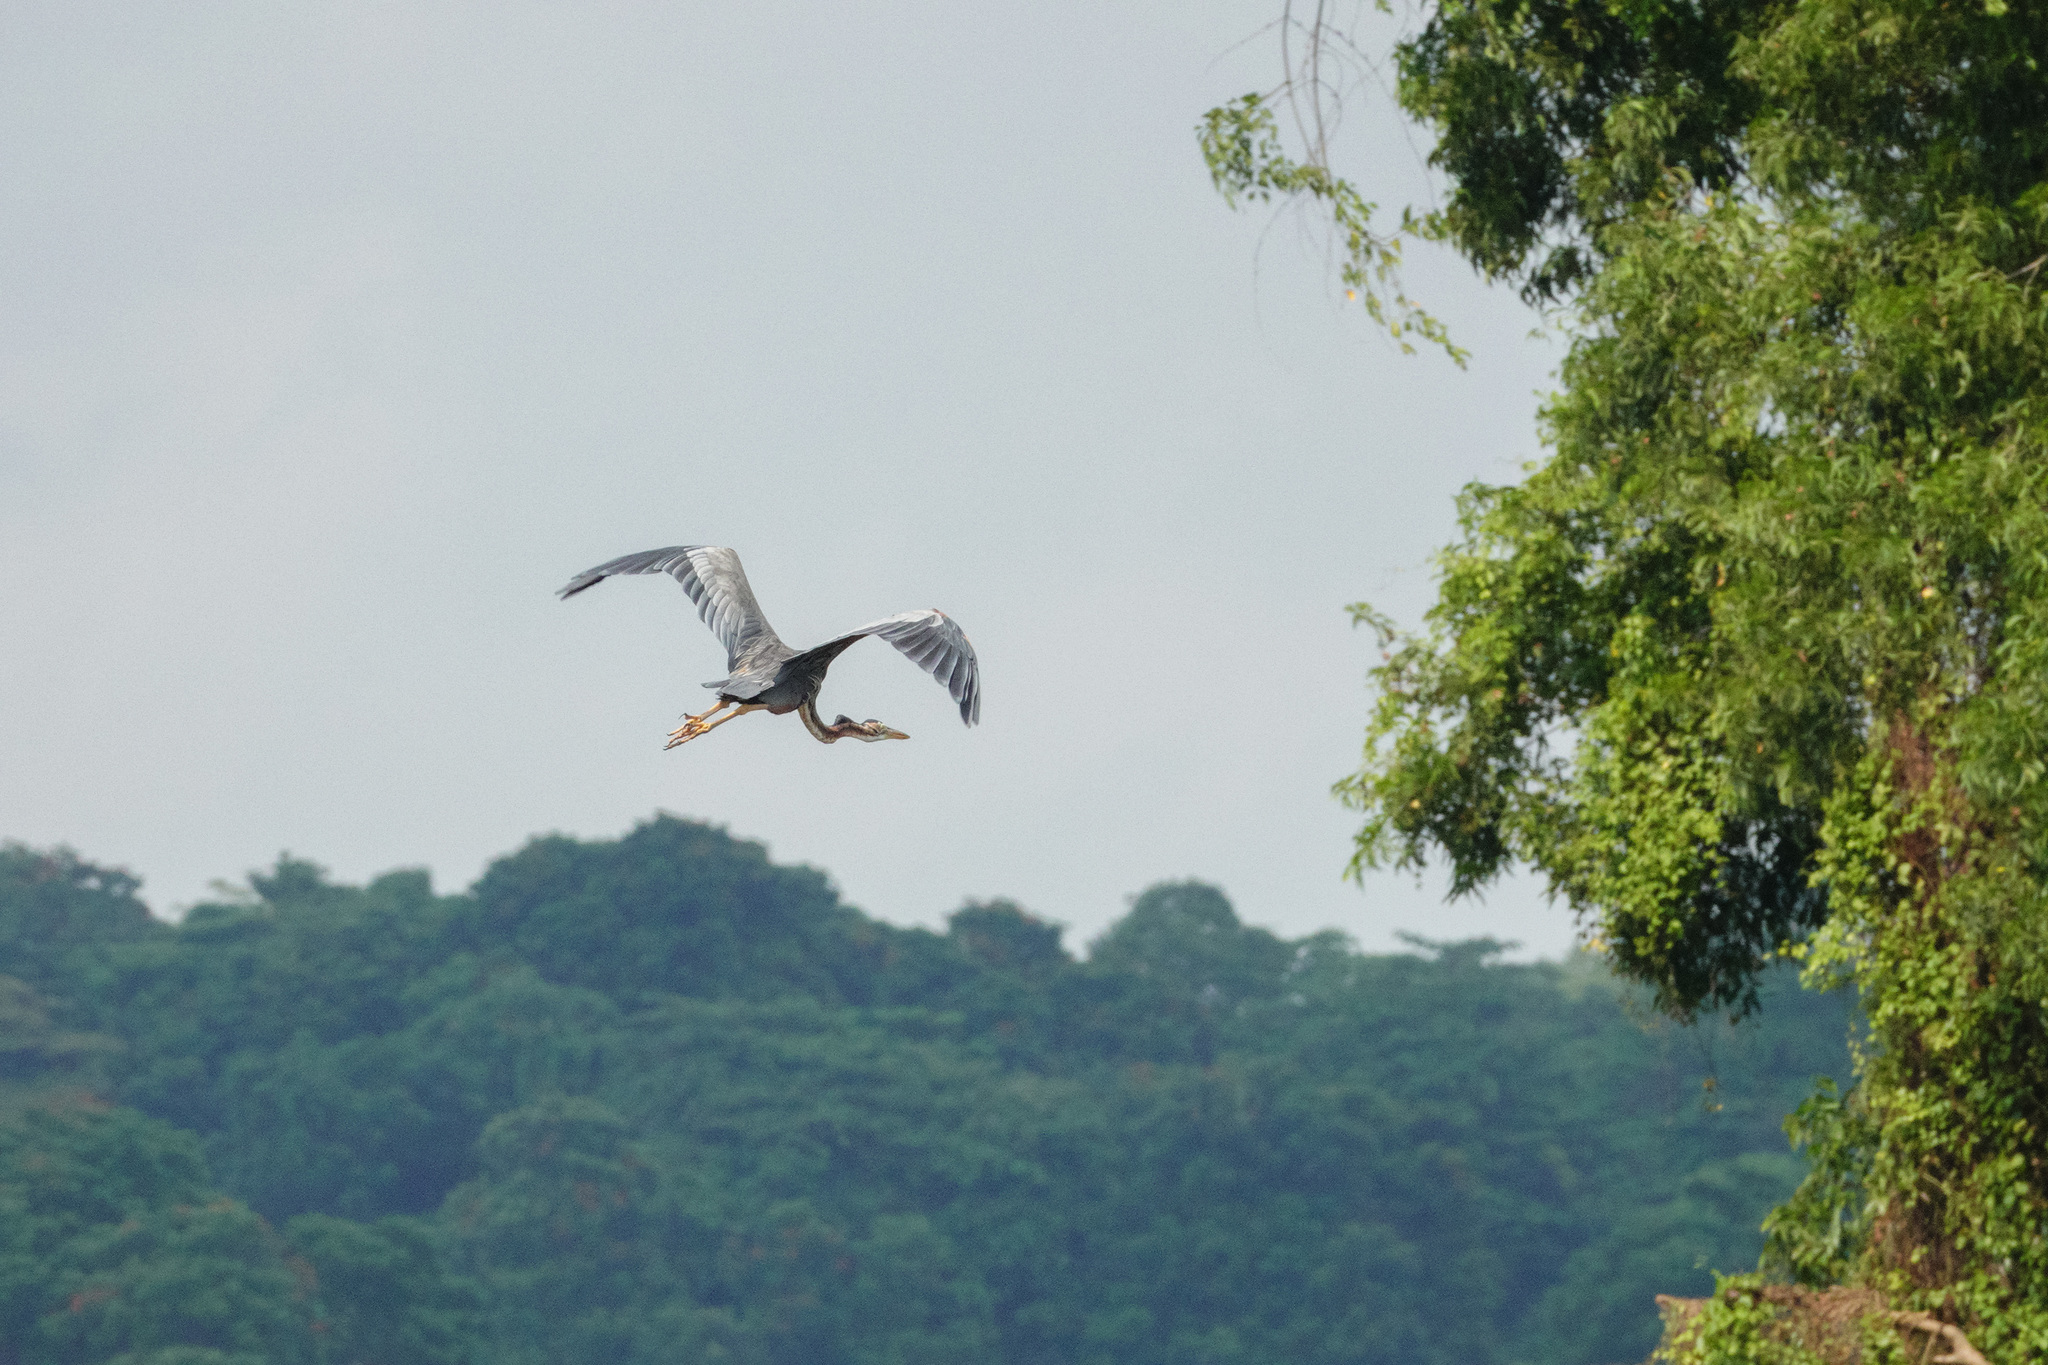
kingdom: Animalia
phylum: Chordata
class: Aves
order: Pelecaniformes
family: Ardeidae
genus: Ardea
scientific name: Ardea purpurea
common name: Purple heron
